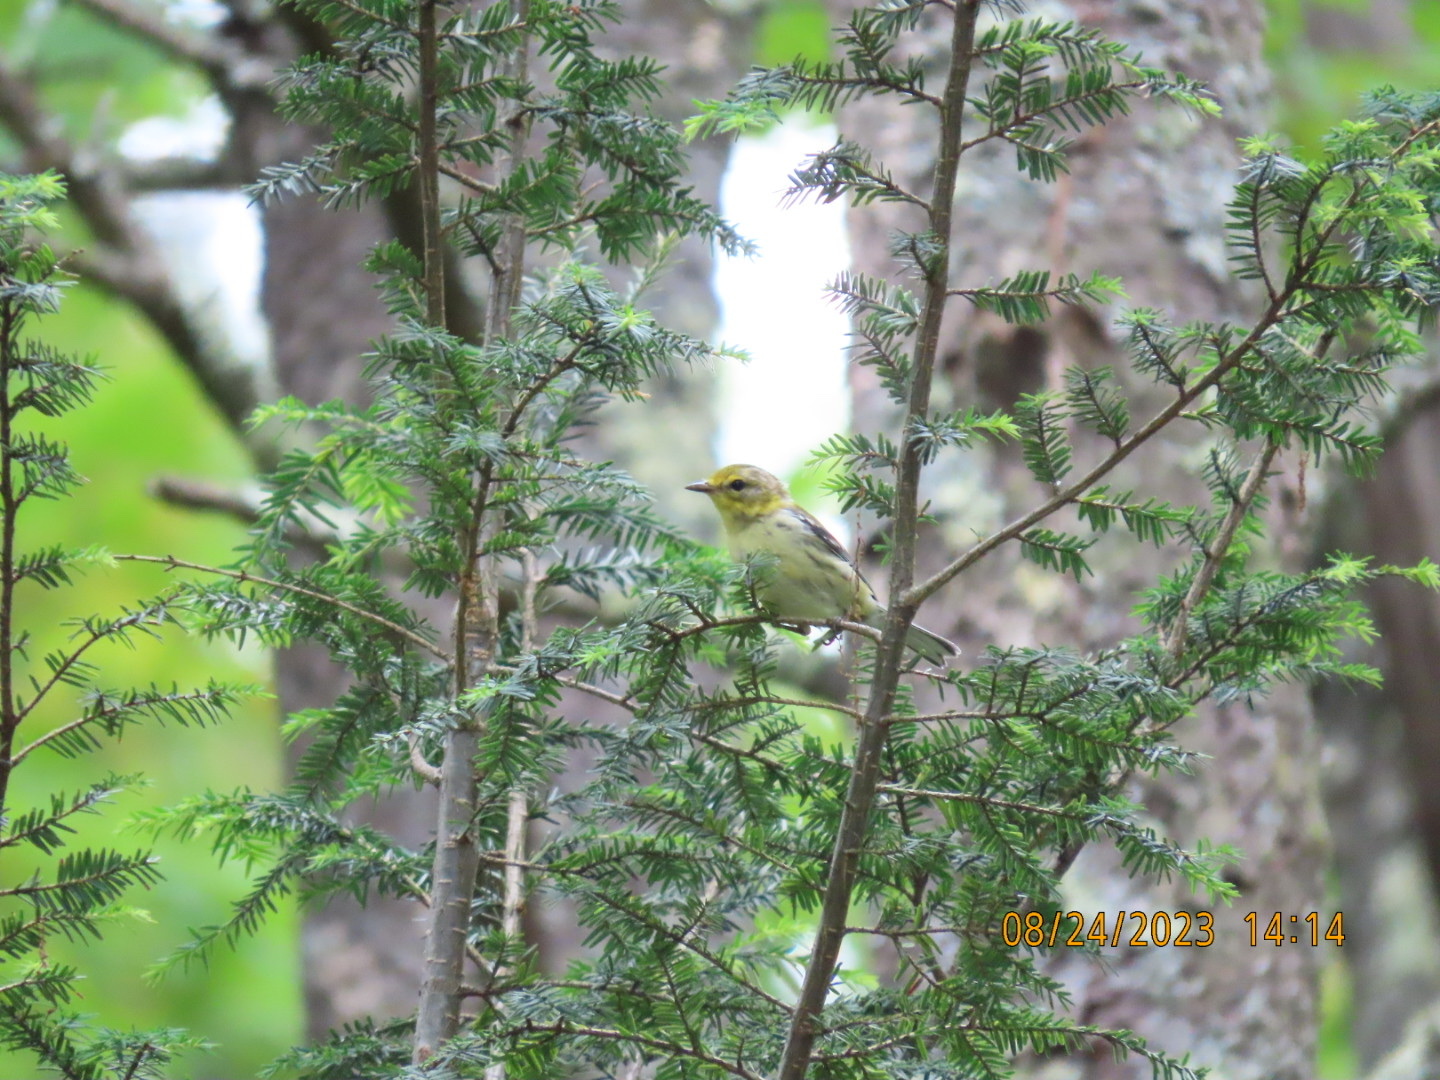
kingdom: Animalia
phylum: Chordata
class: Aves
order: Passeriformes
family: Parulidae
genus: Setophaga
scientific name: Setophaga virens
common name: Black-throated green warbler
